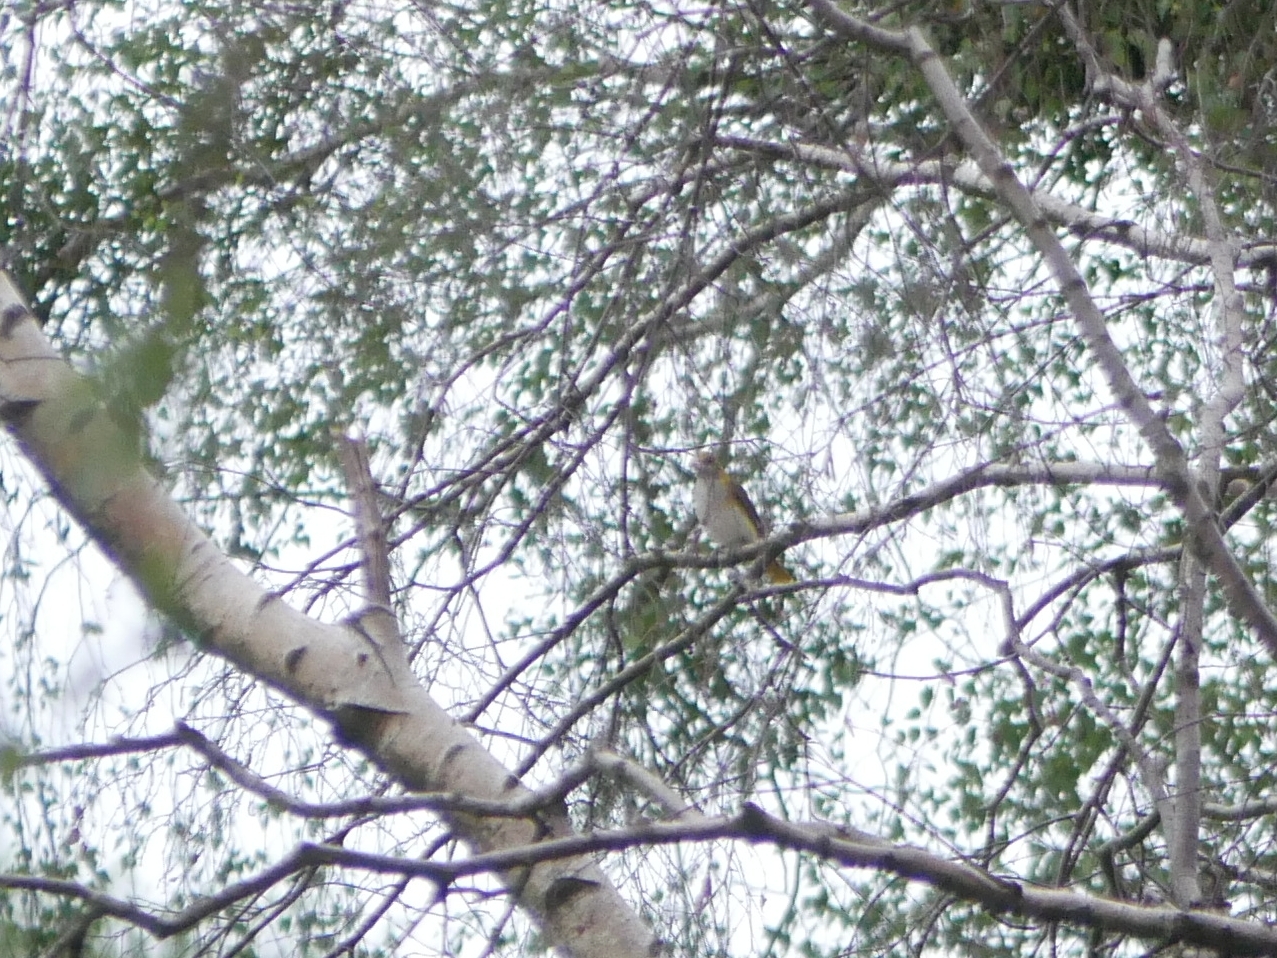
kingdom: Animalia
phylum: Chordata
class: Aves
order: Passeriformes
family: Oriolidae
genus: Oriolus
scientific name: Oriolus oriolus
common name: Eurasian golden oriole
